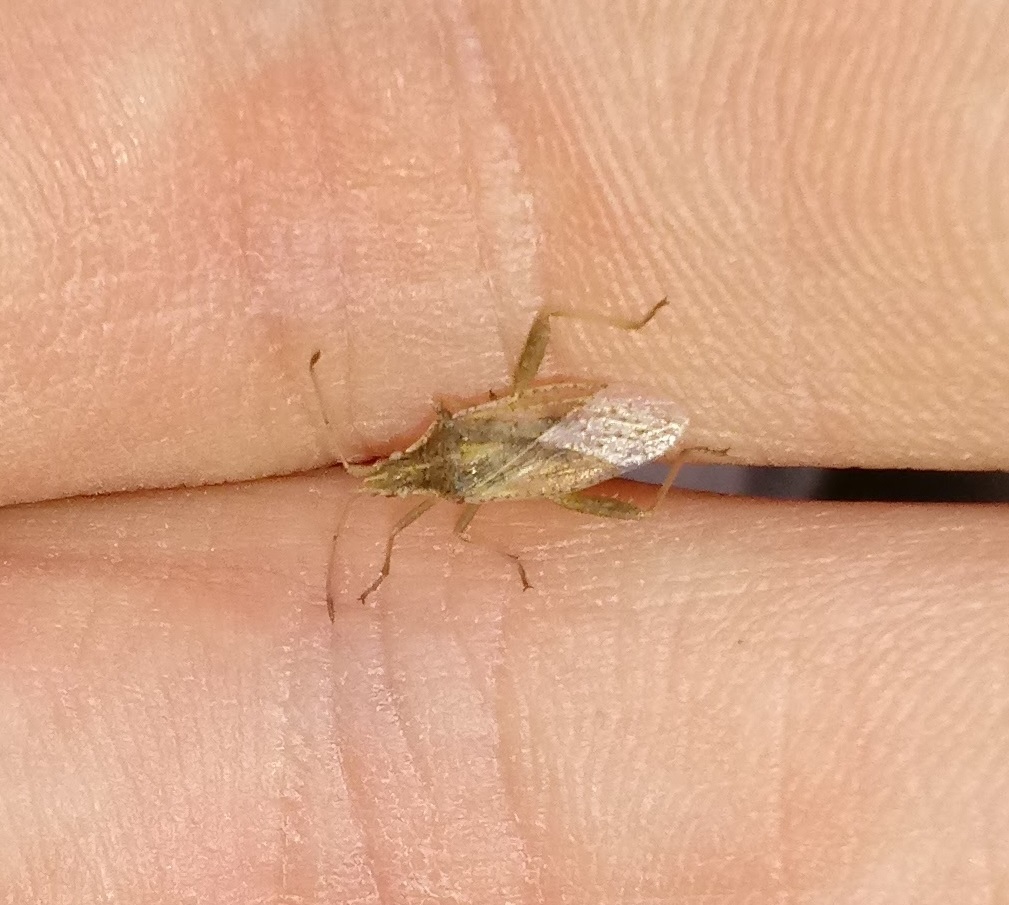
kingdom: Animalia
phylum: Arthropoda
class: Insecta
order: Hemiptera
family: Rhopalidae
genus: Harmostes
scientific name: Harmostes reflexulus
